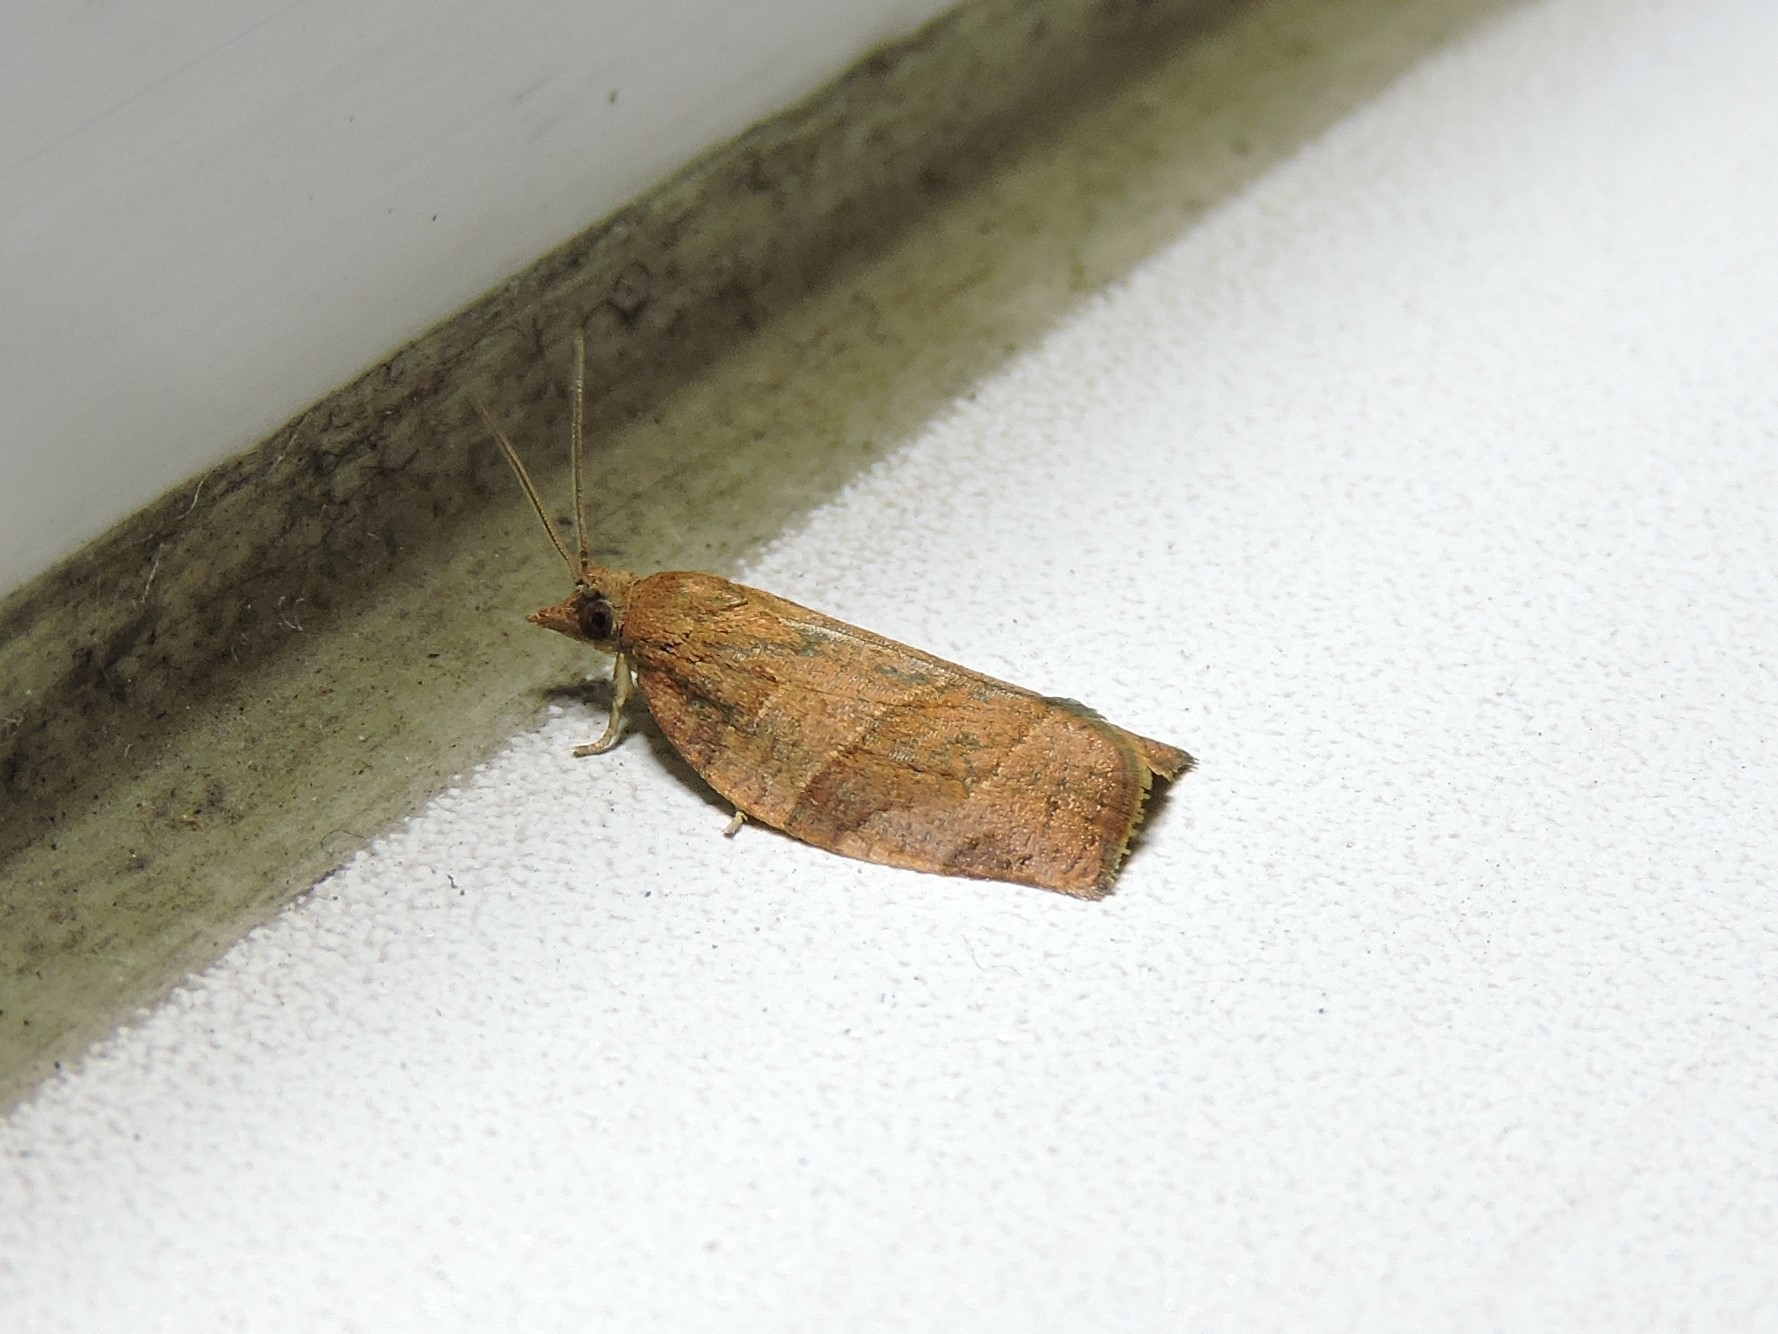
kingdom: Animalia
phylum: Arthropoda
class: Insecta
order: Lepidoptera
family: Tortricidae
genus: Pandemis
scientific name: Pandemis heparana
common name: Dark fruit-tree tortrix
